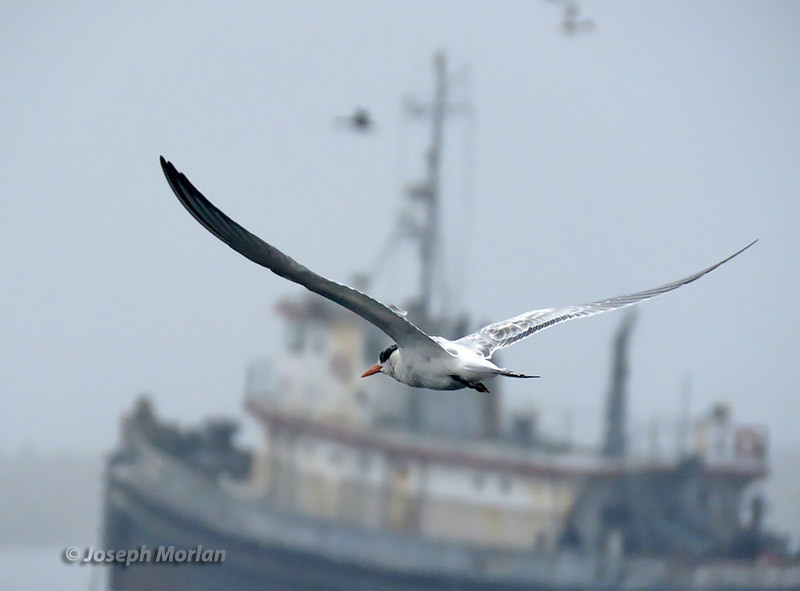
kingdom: Animalia
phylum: Chordata
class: Aves
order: Charadriiformes
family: Laridae
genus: Thalasseus
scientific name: Thalasseus elegans
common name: Elegant tern
